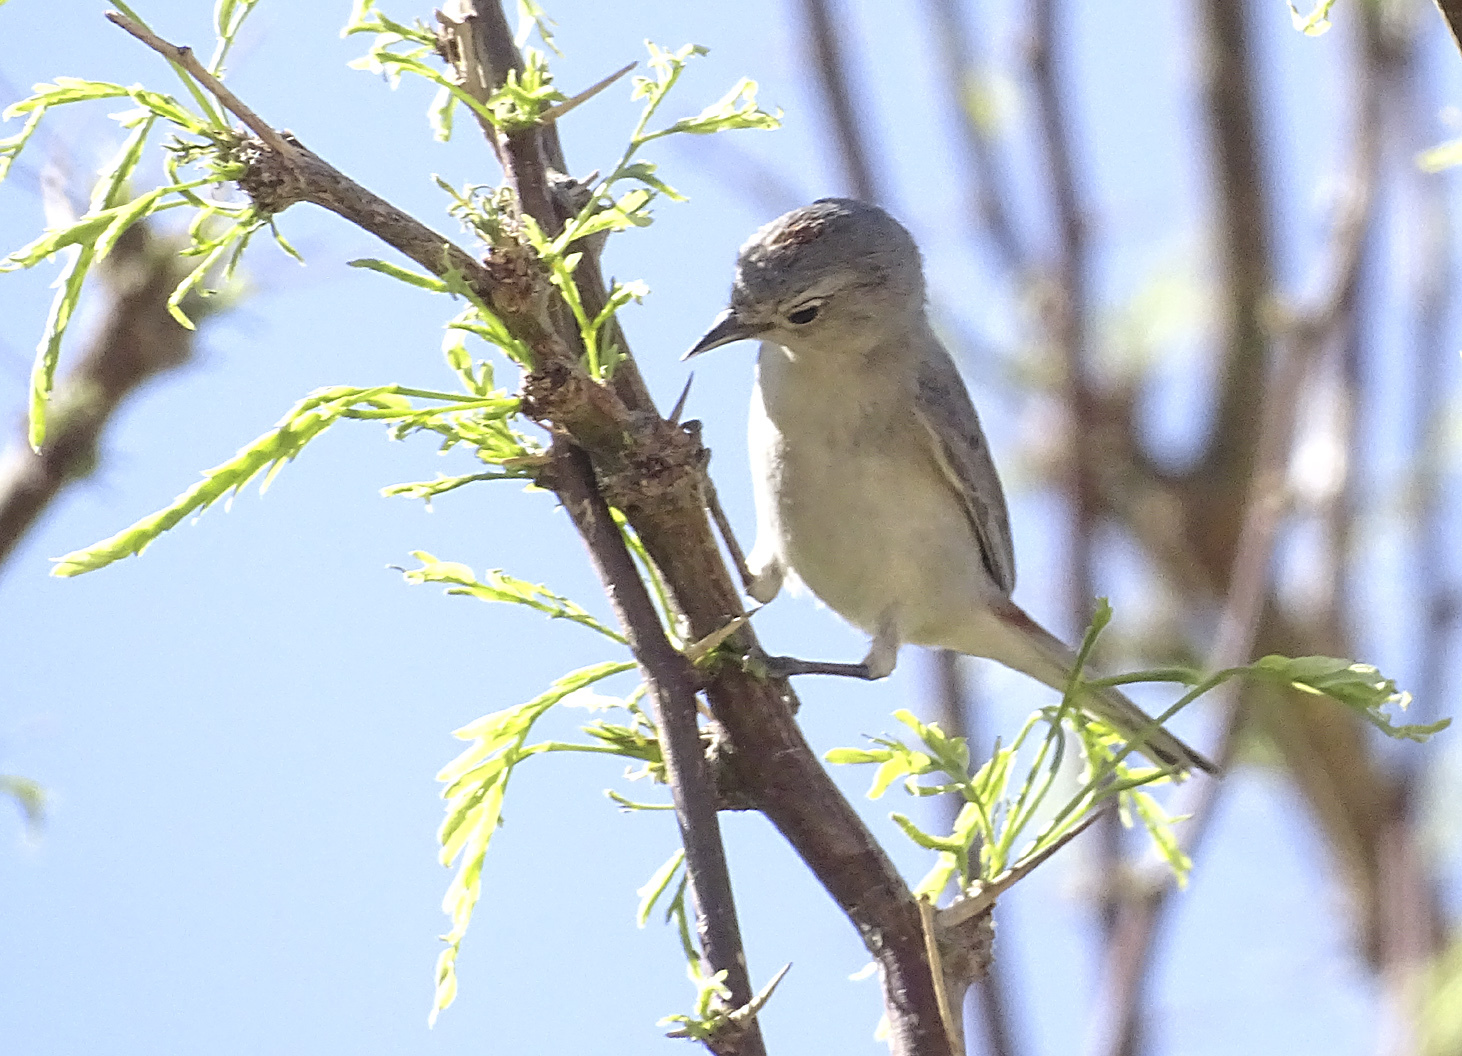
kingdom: Animalia
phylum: Chordata
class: Aves
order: Passeriformes
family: Parulidae
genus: Leiothlypis
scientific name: Leiothlypis luciae
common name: Lucy's warbler
